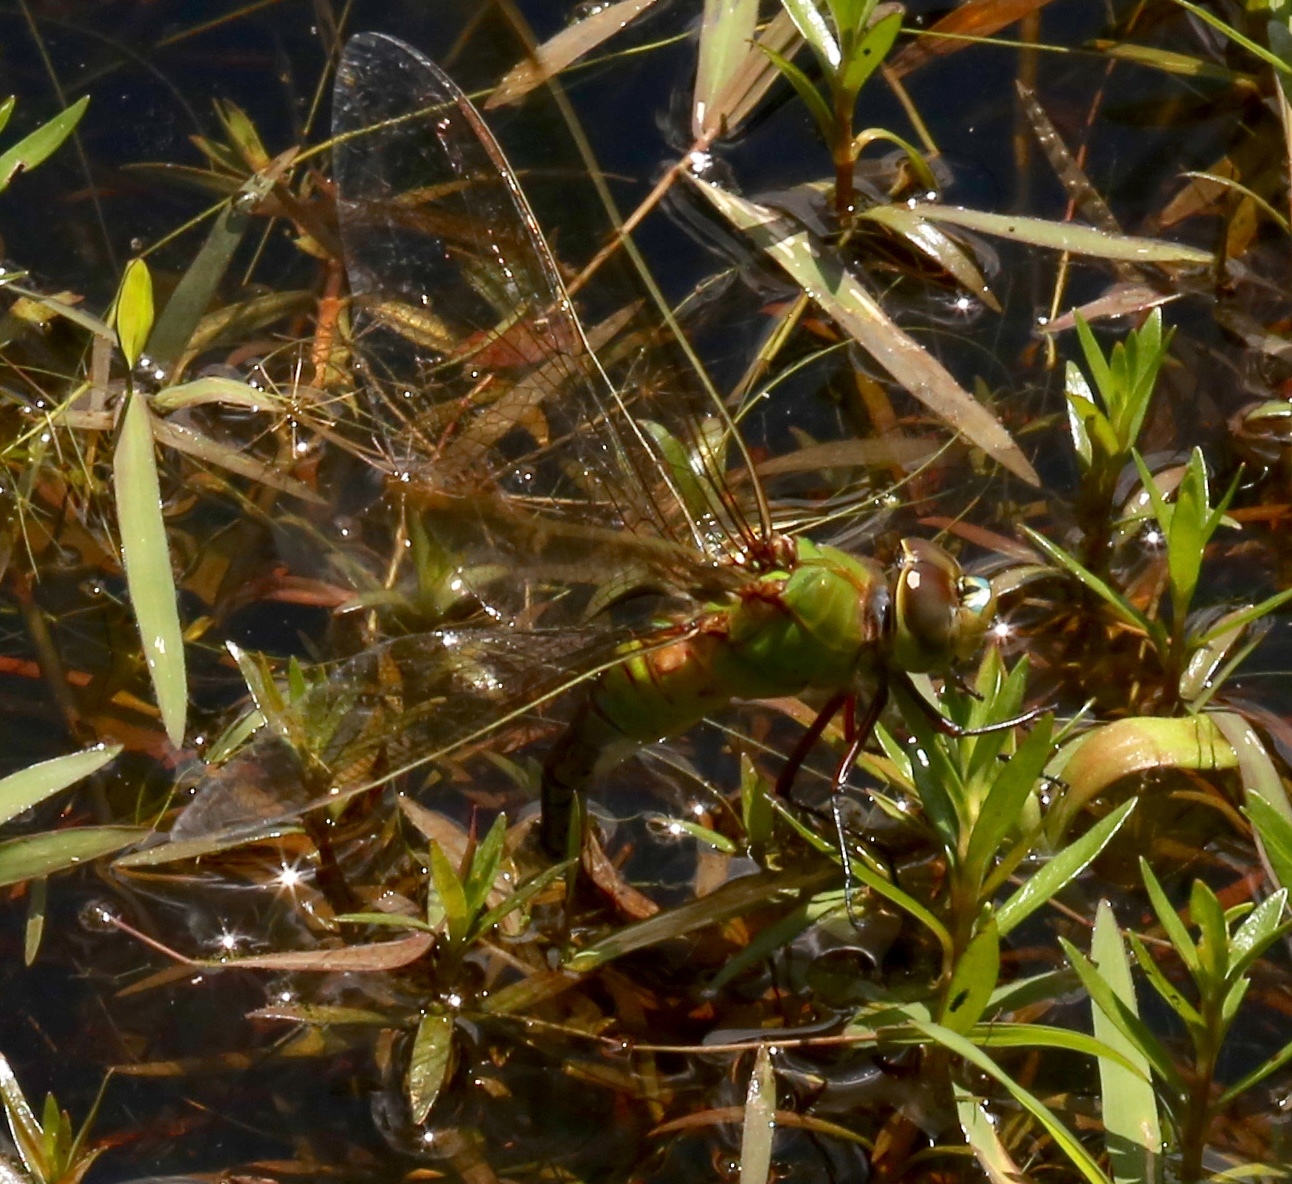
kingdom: Animalia
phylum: Arthropoda
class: Insecta
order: Odonata
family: Aeshnidae
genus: Anax
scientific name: Anax junius
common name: Common green darner
